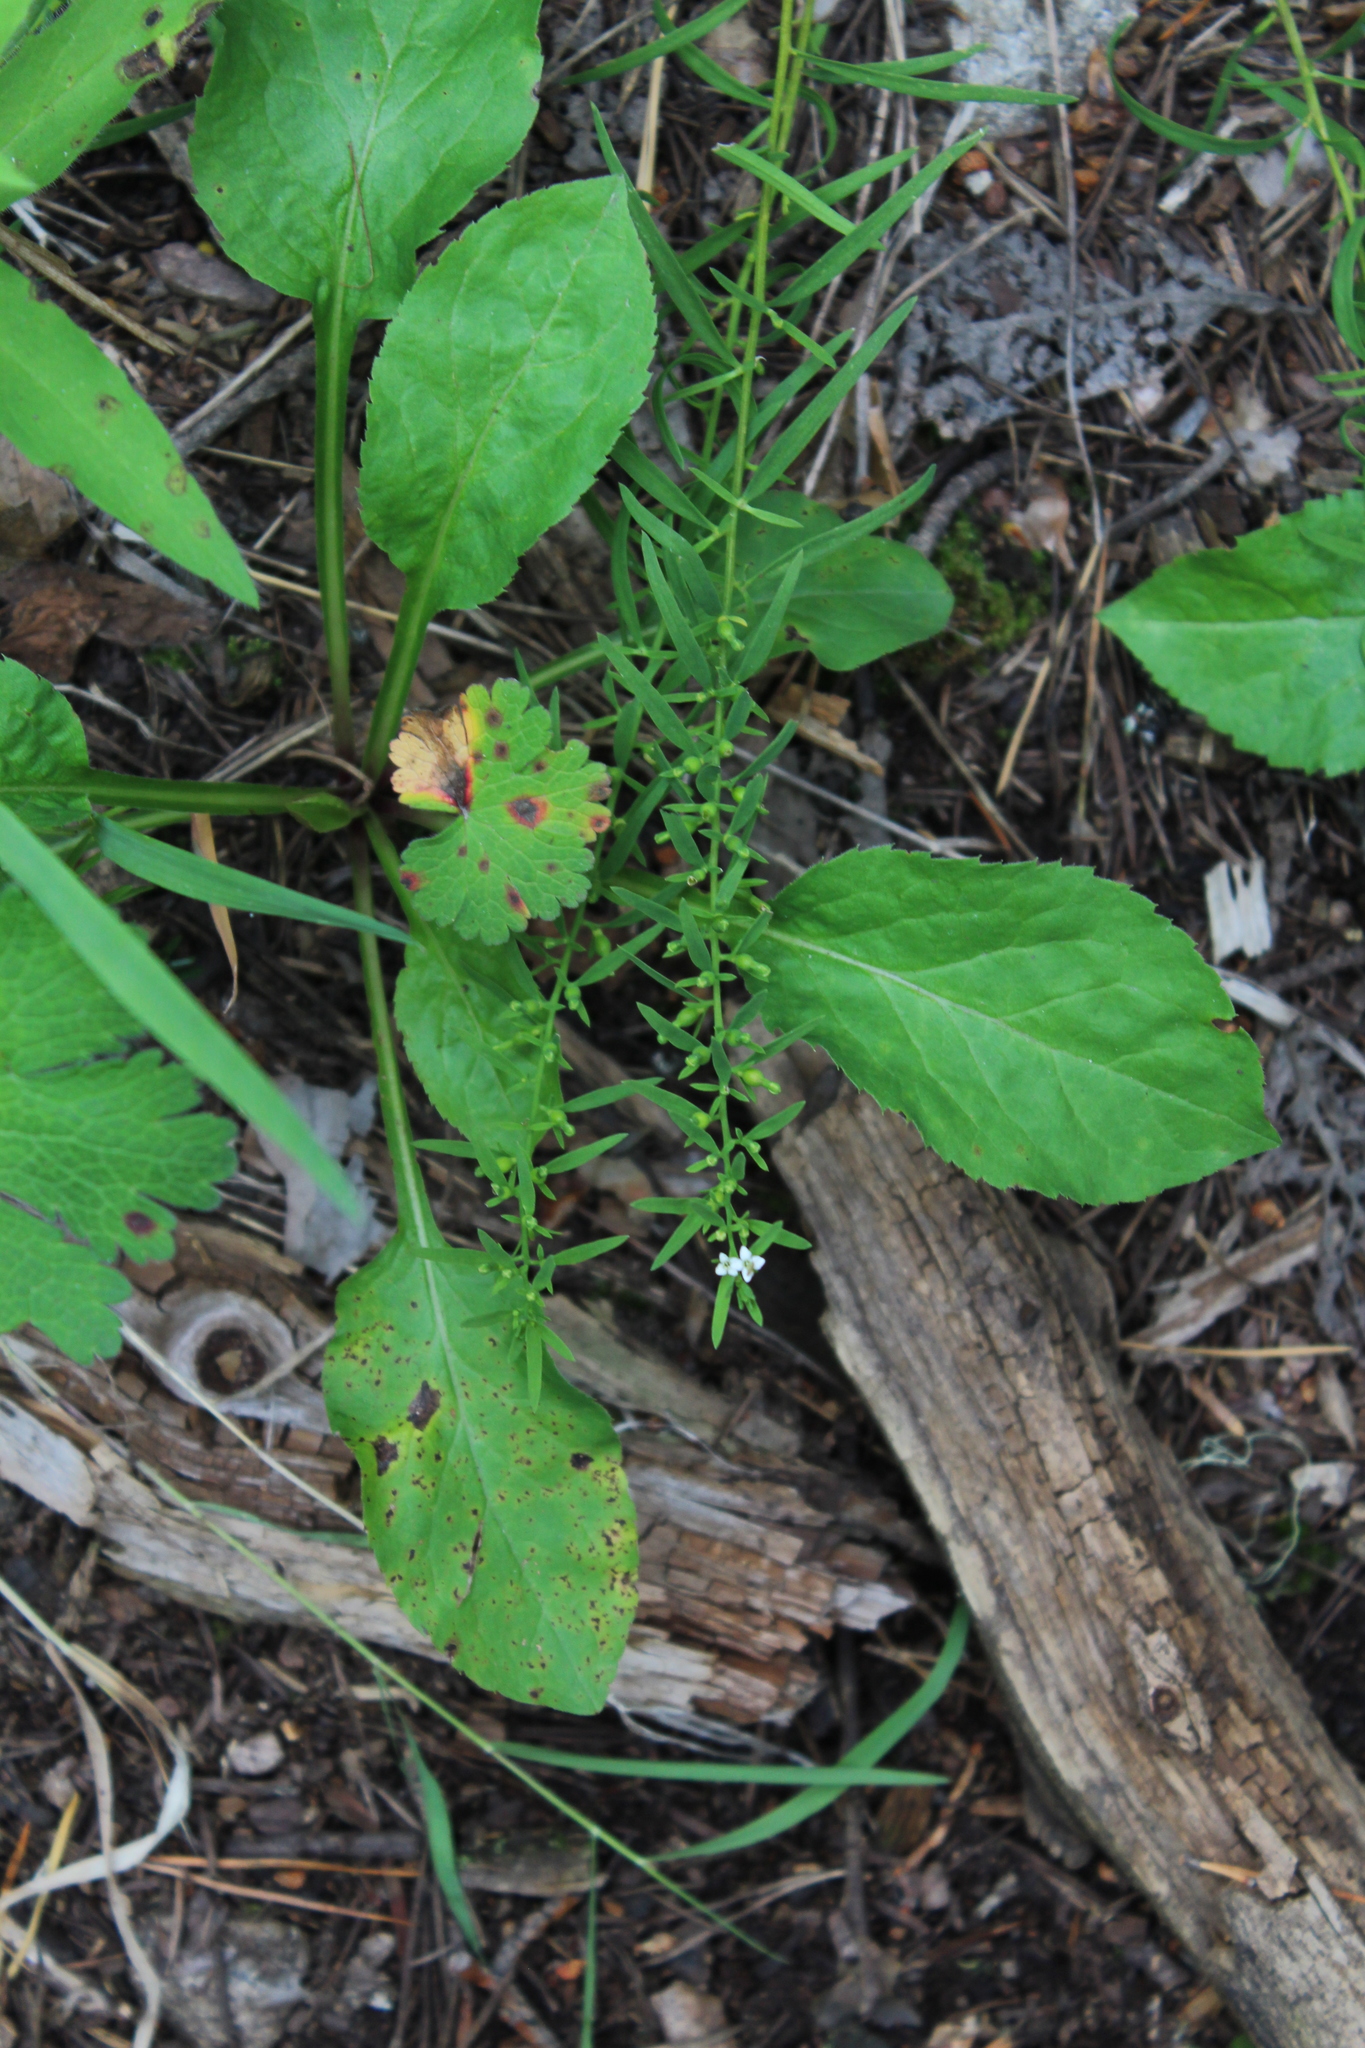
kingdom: Plantae
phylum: Tracheophyta
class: Magnoliopsida
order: Santalales
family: Thesiaceae
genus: Thesium
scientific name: Thesium alpinum
